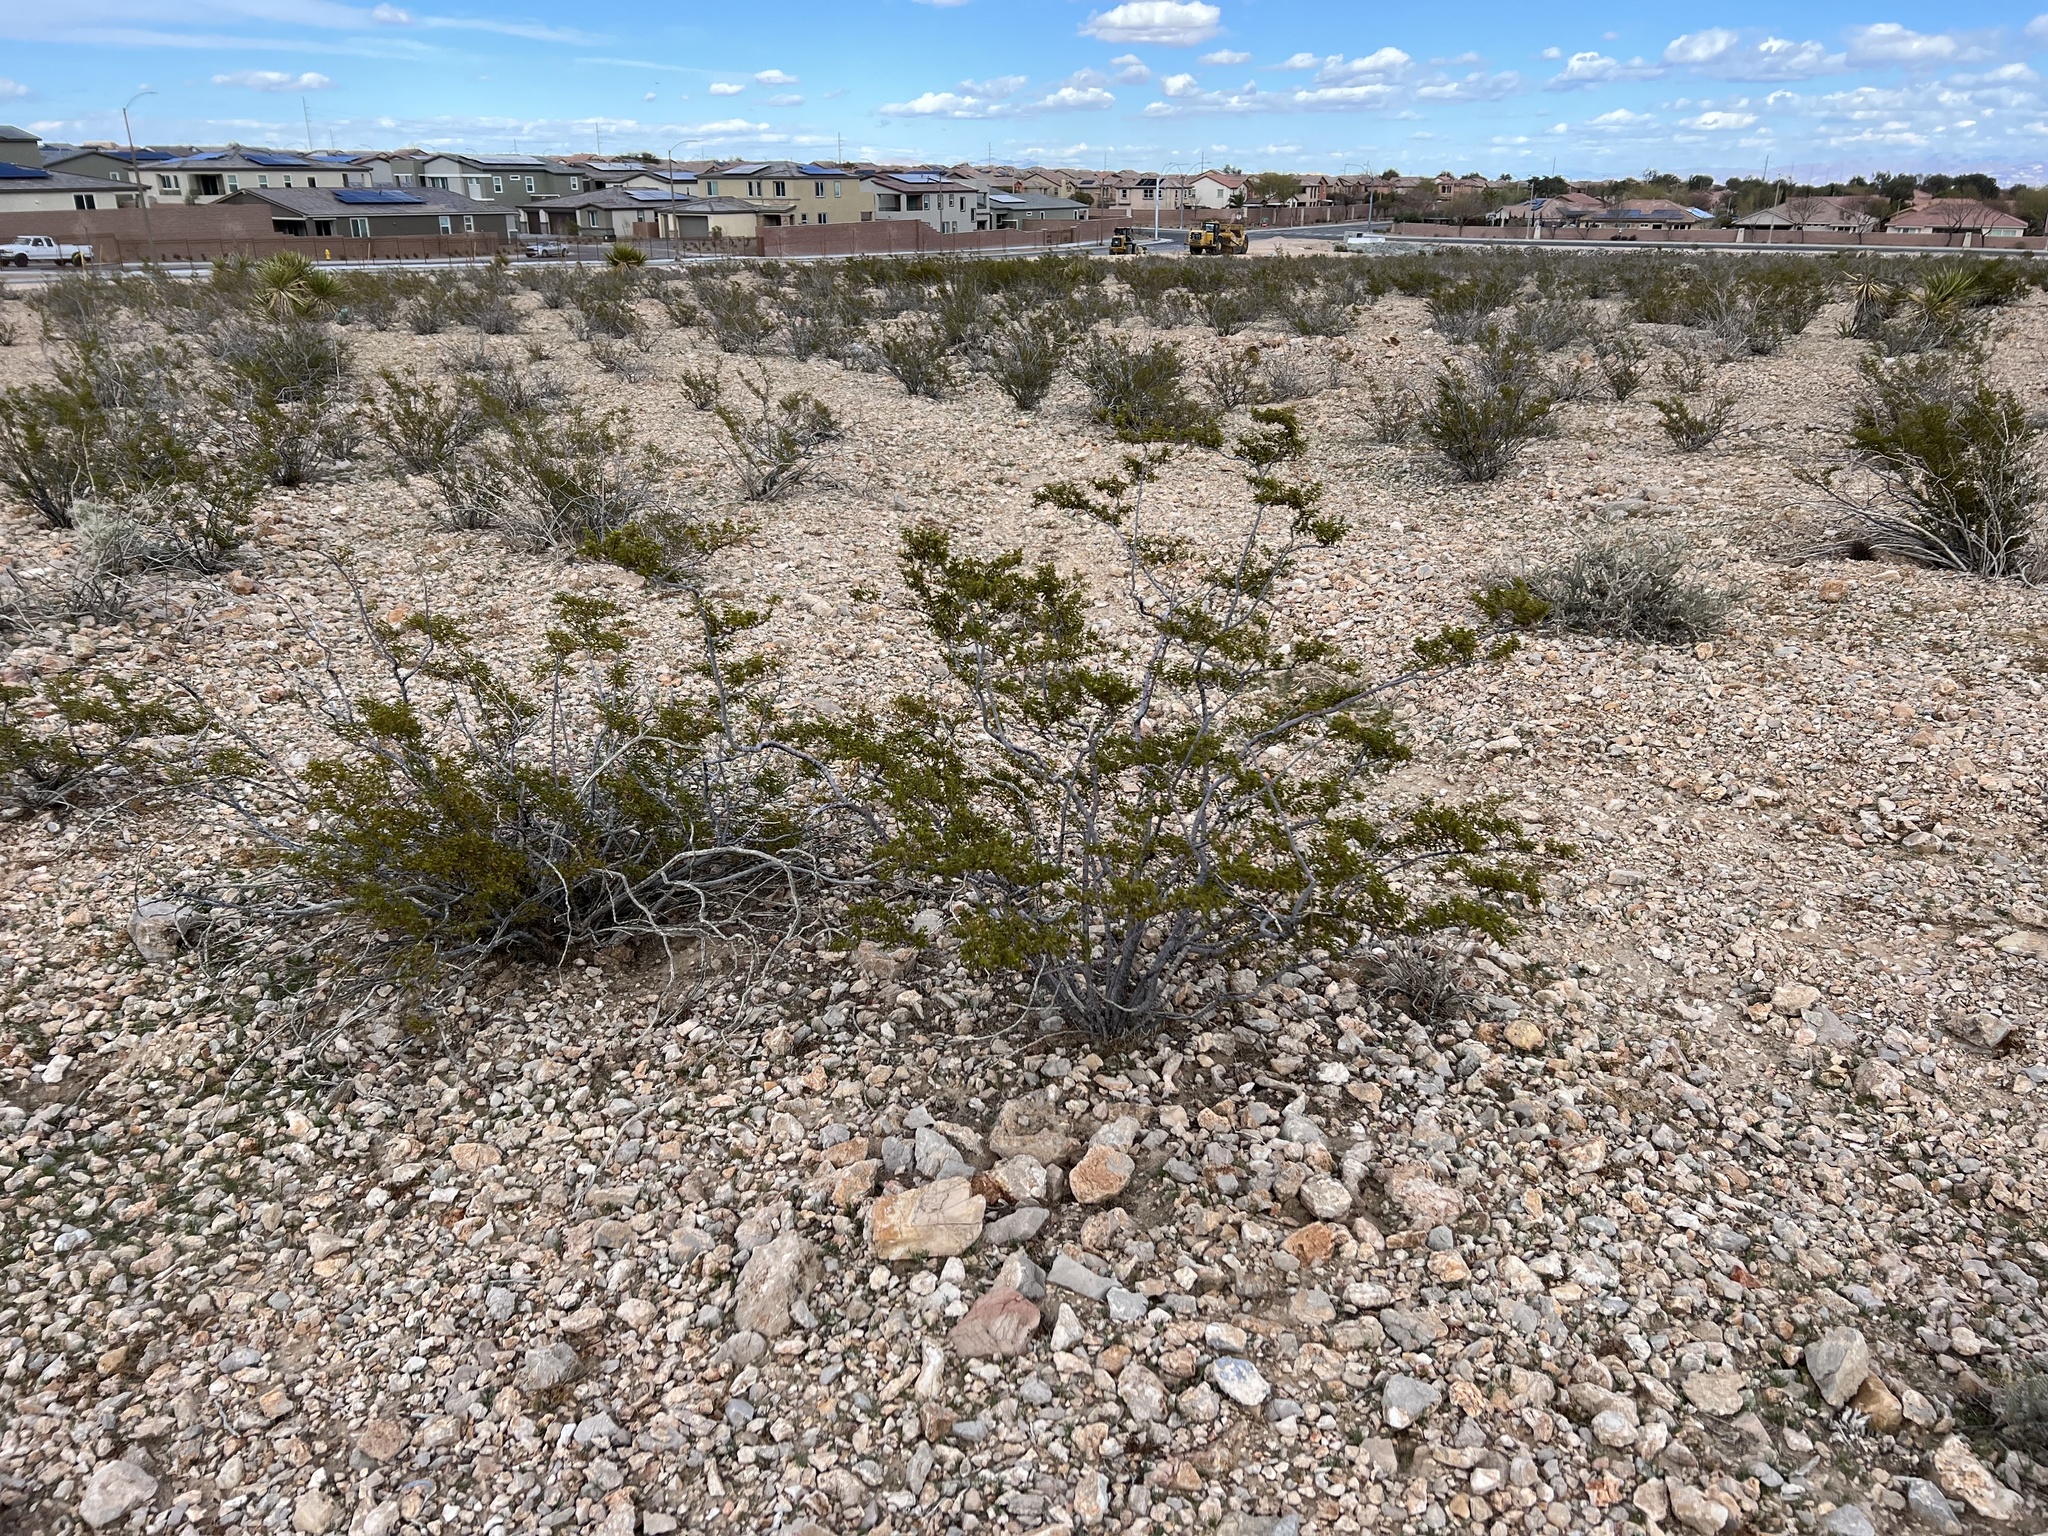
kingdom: Plantae
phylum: Tracheophyta
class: Magnoliopsida
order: Zygophyllales
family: Zygophyllaceae
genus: Larrea
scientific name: Larrea tridentata
